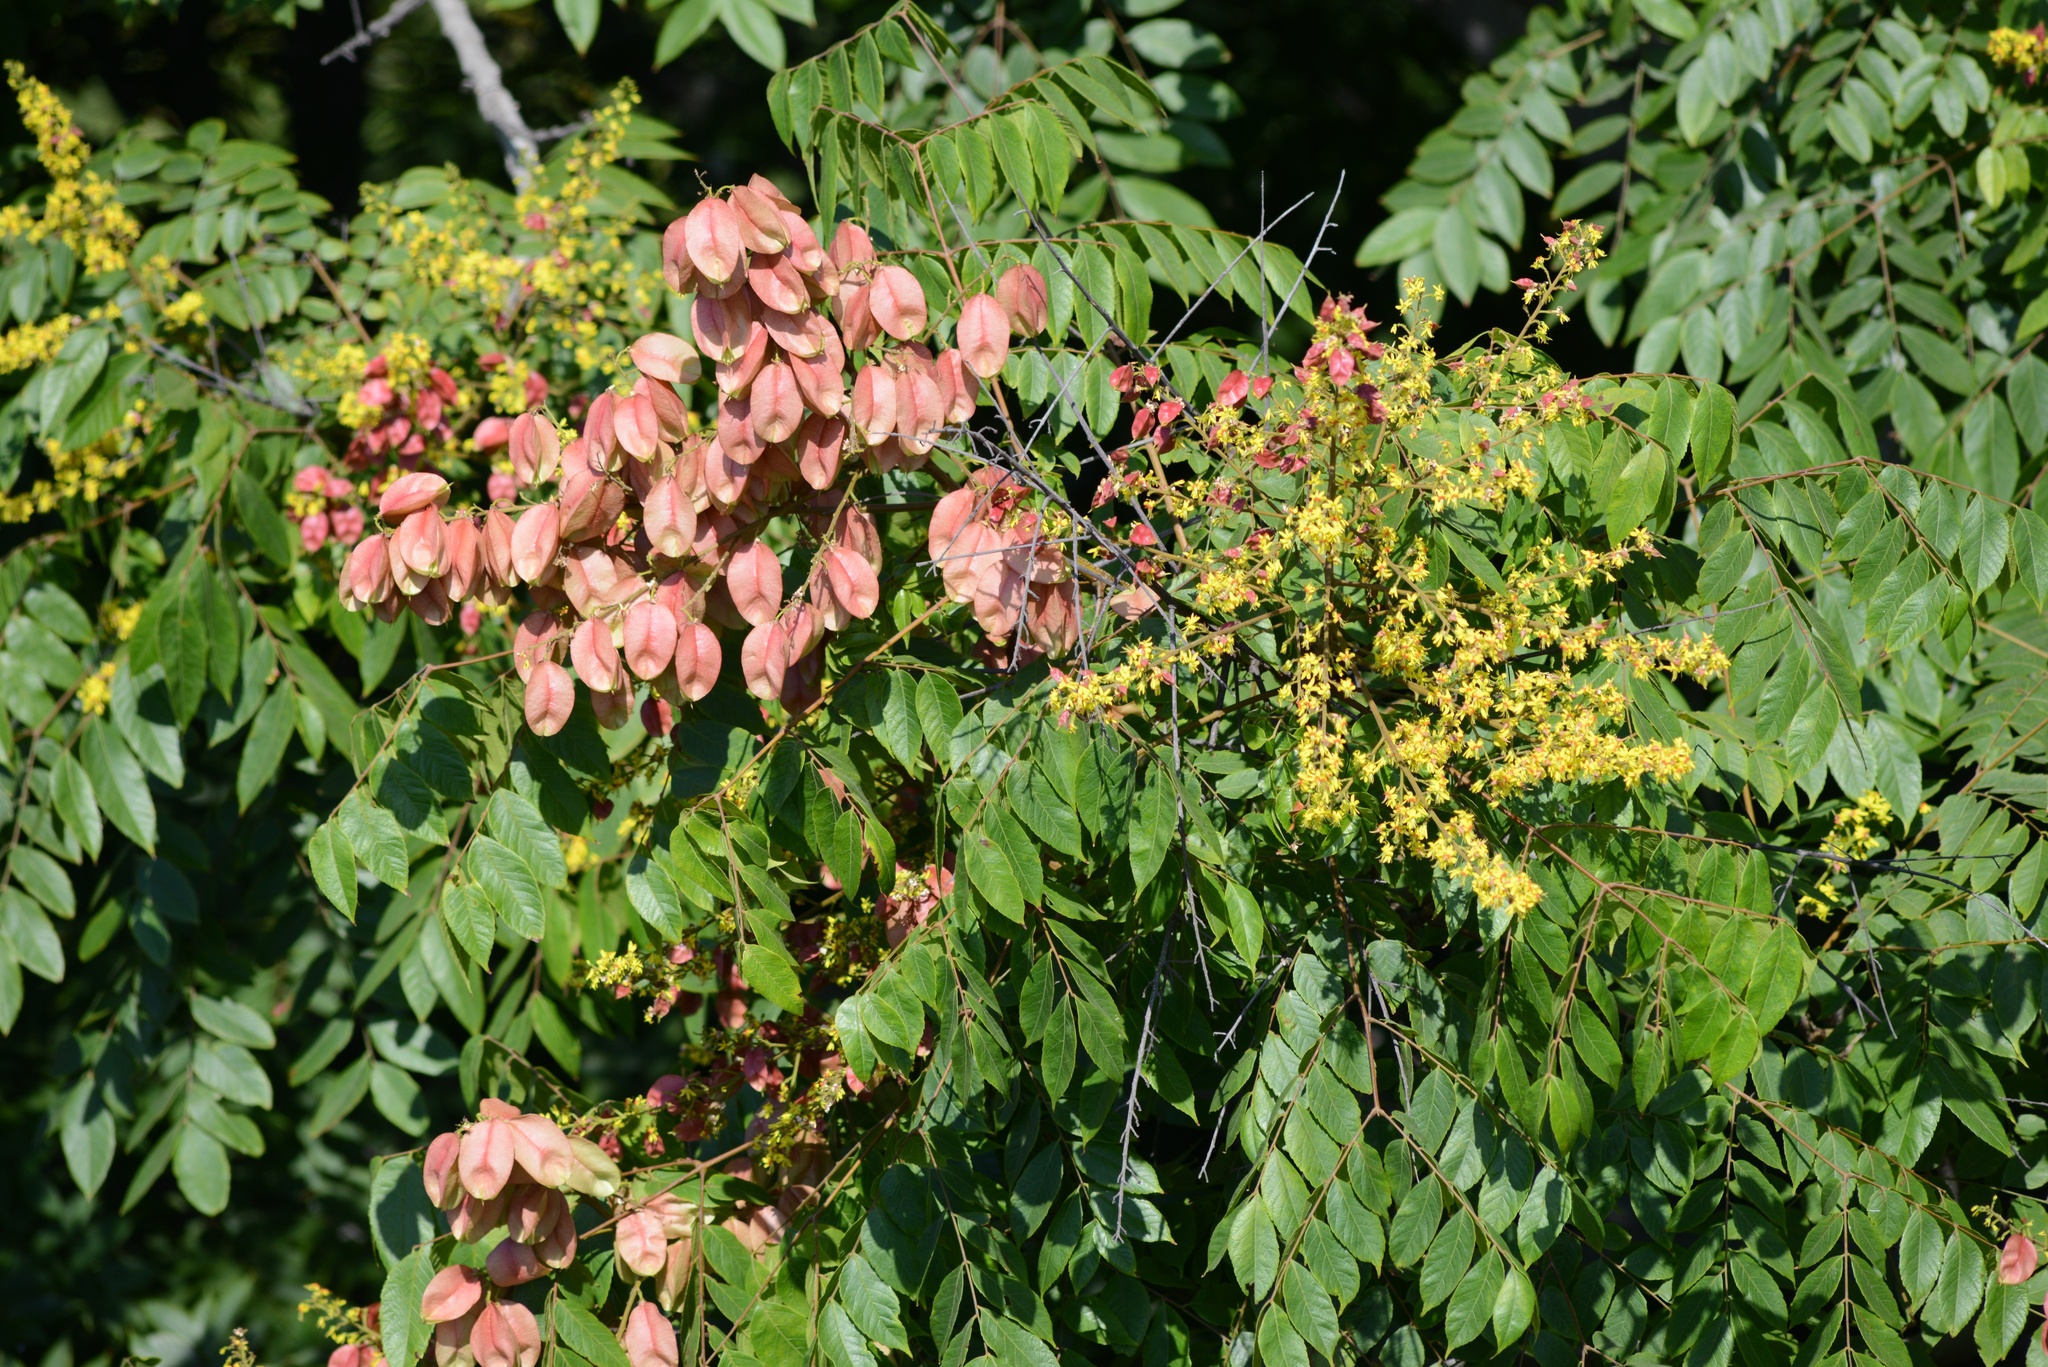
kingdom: Plantae
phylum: Tracheophyta
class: Magnoliopsida
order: Sapindales
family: Sapindaceae
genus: Koelreuteria
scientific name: Koelreuteria paniculata
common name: Pride-of-india
